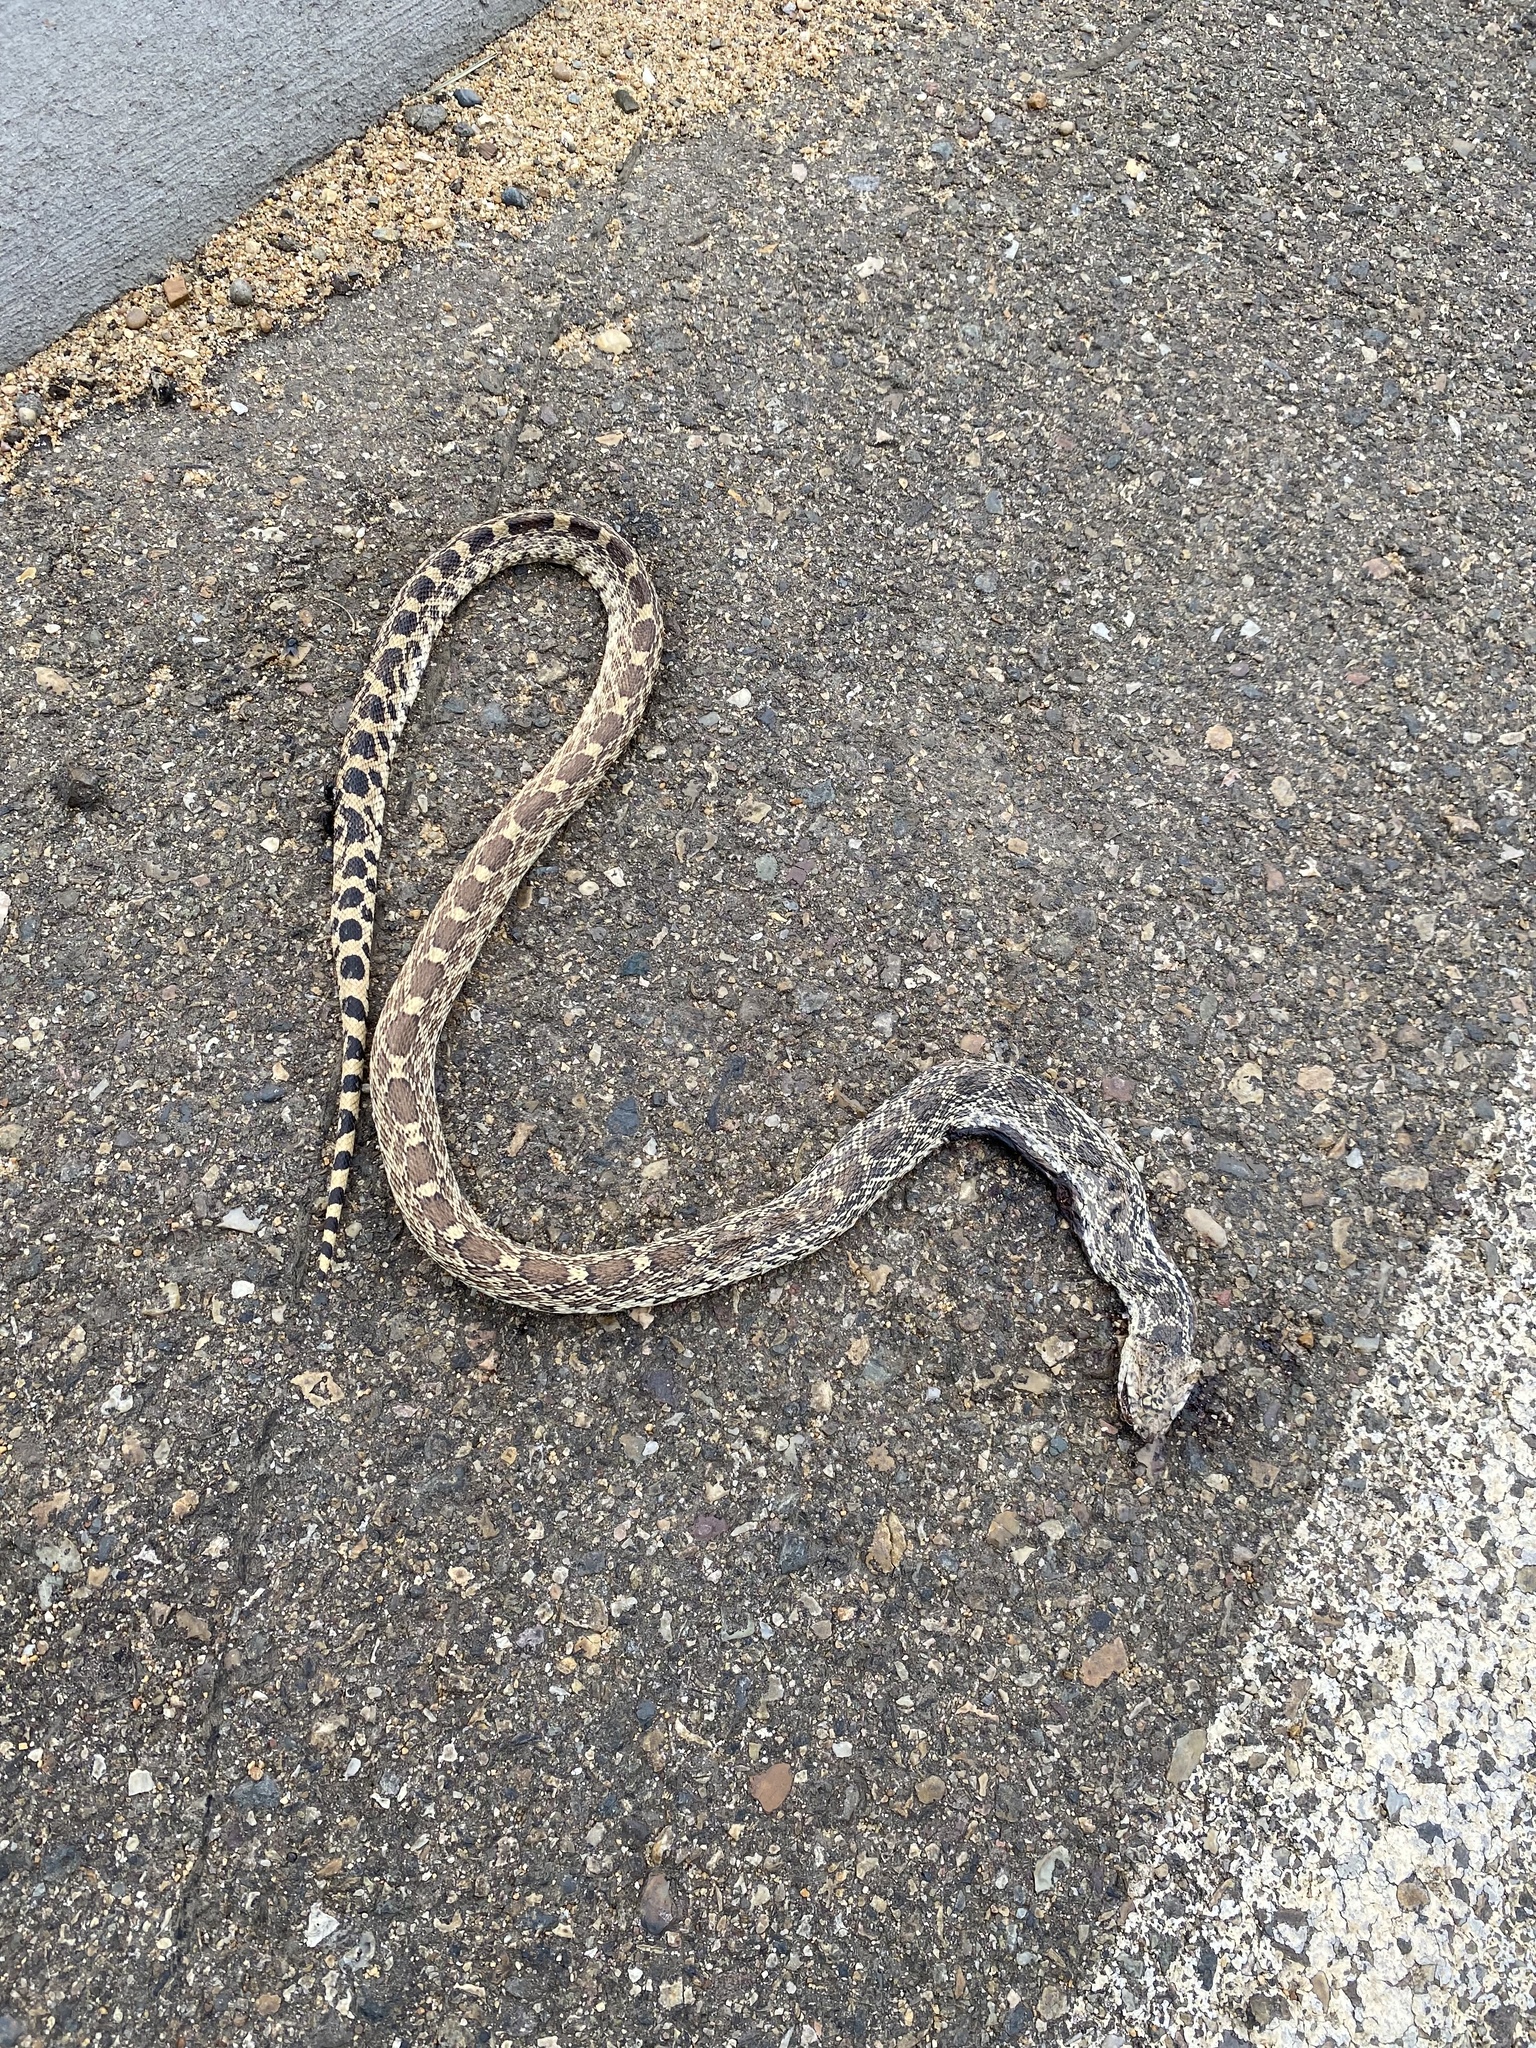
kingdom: Animalia
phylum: Chordata
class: Squamata
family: Colubridae
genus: Pituophis
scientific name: Pituophis catenifer
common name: Gopher snake
